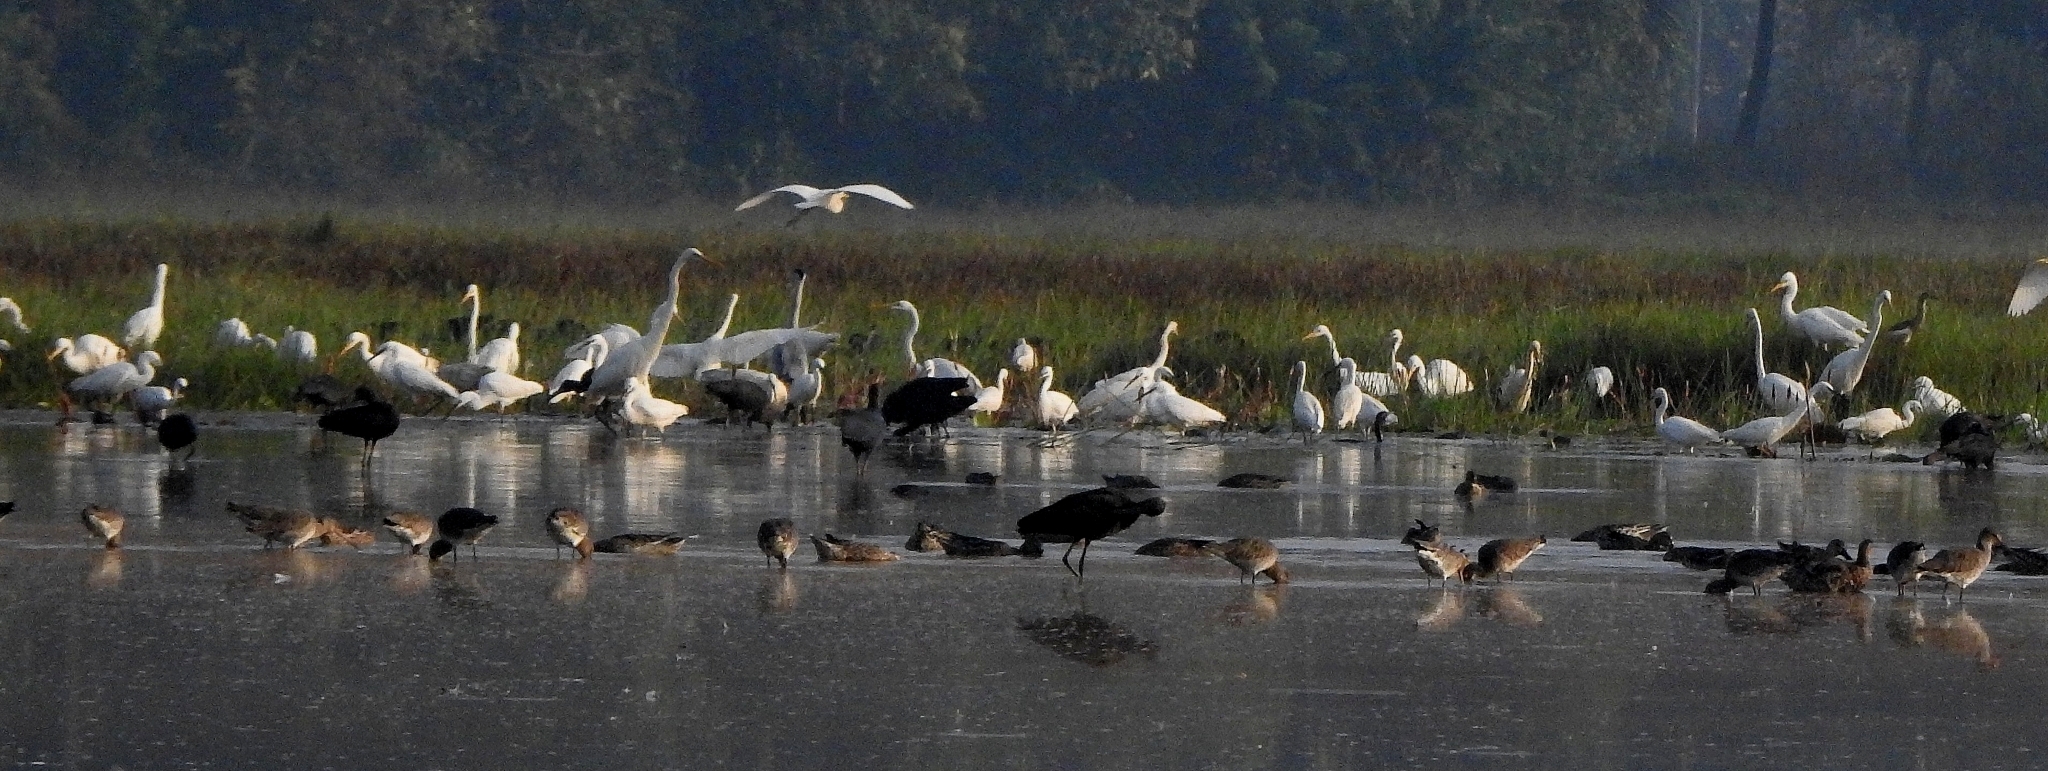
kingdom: Animalia
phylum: Chordata
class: Aves
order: Charadriiformes
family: Scolopacidae
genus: Limosa
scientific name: Limosa limosa
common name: Black-tailed godwit
